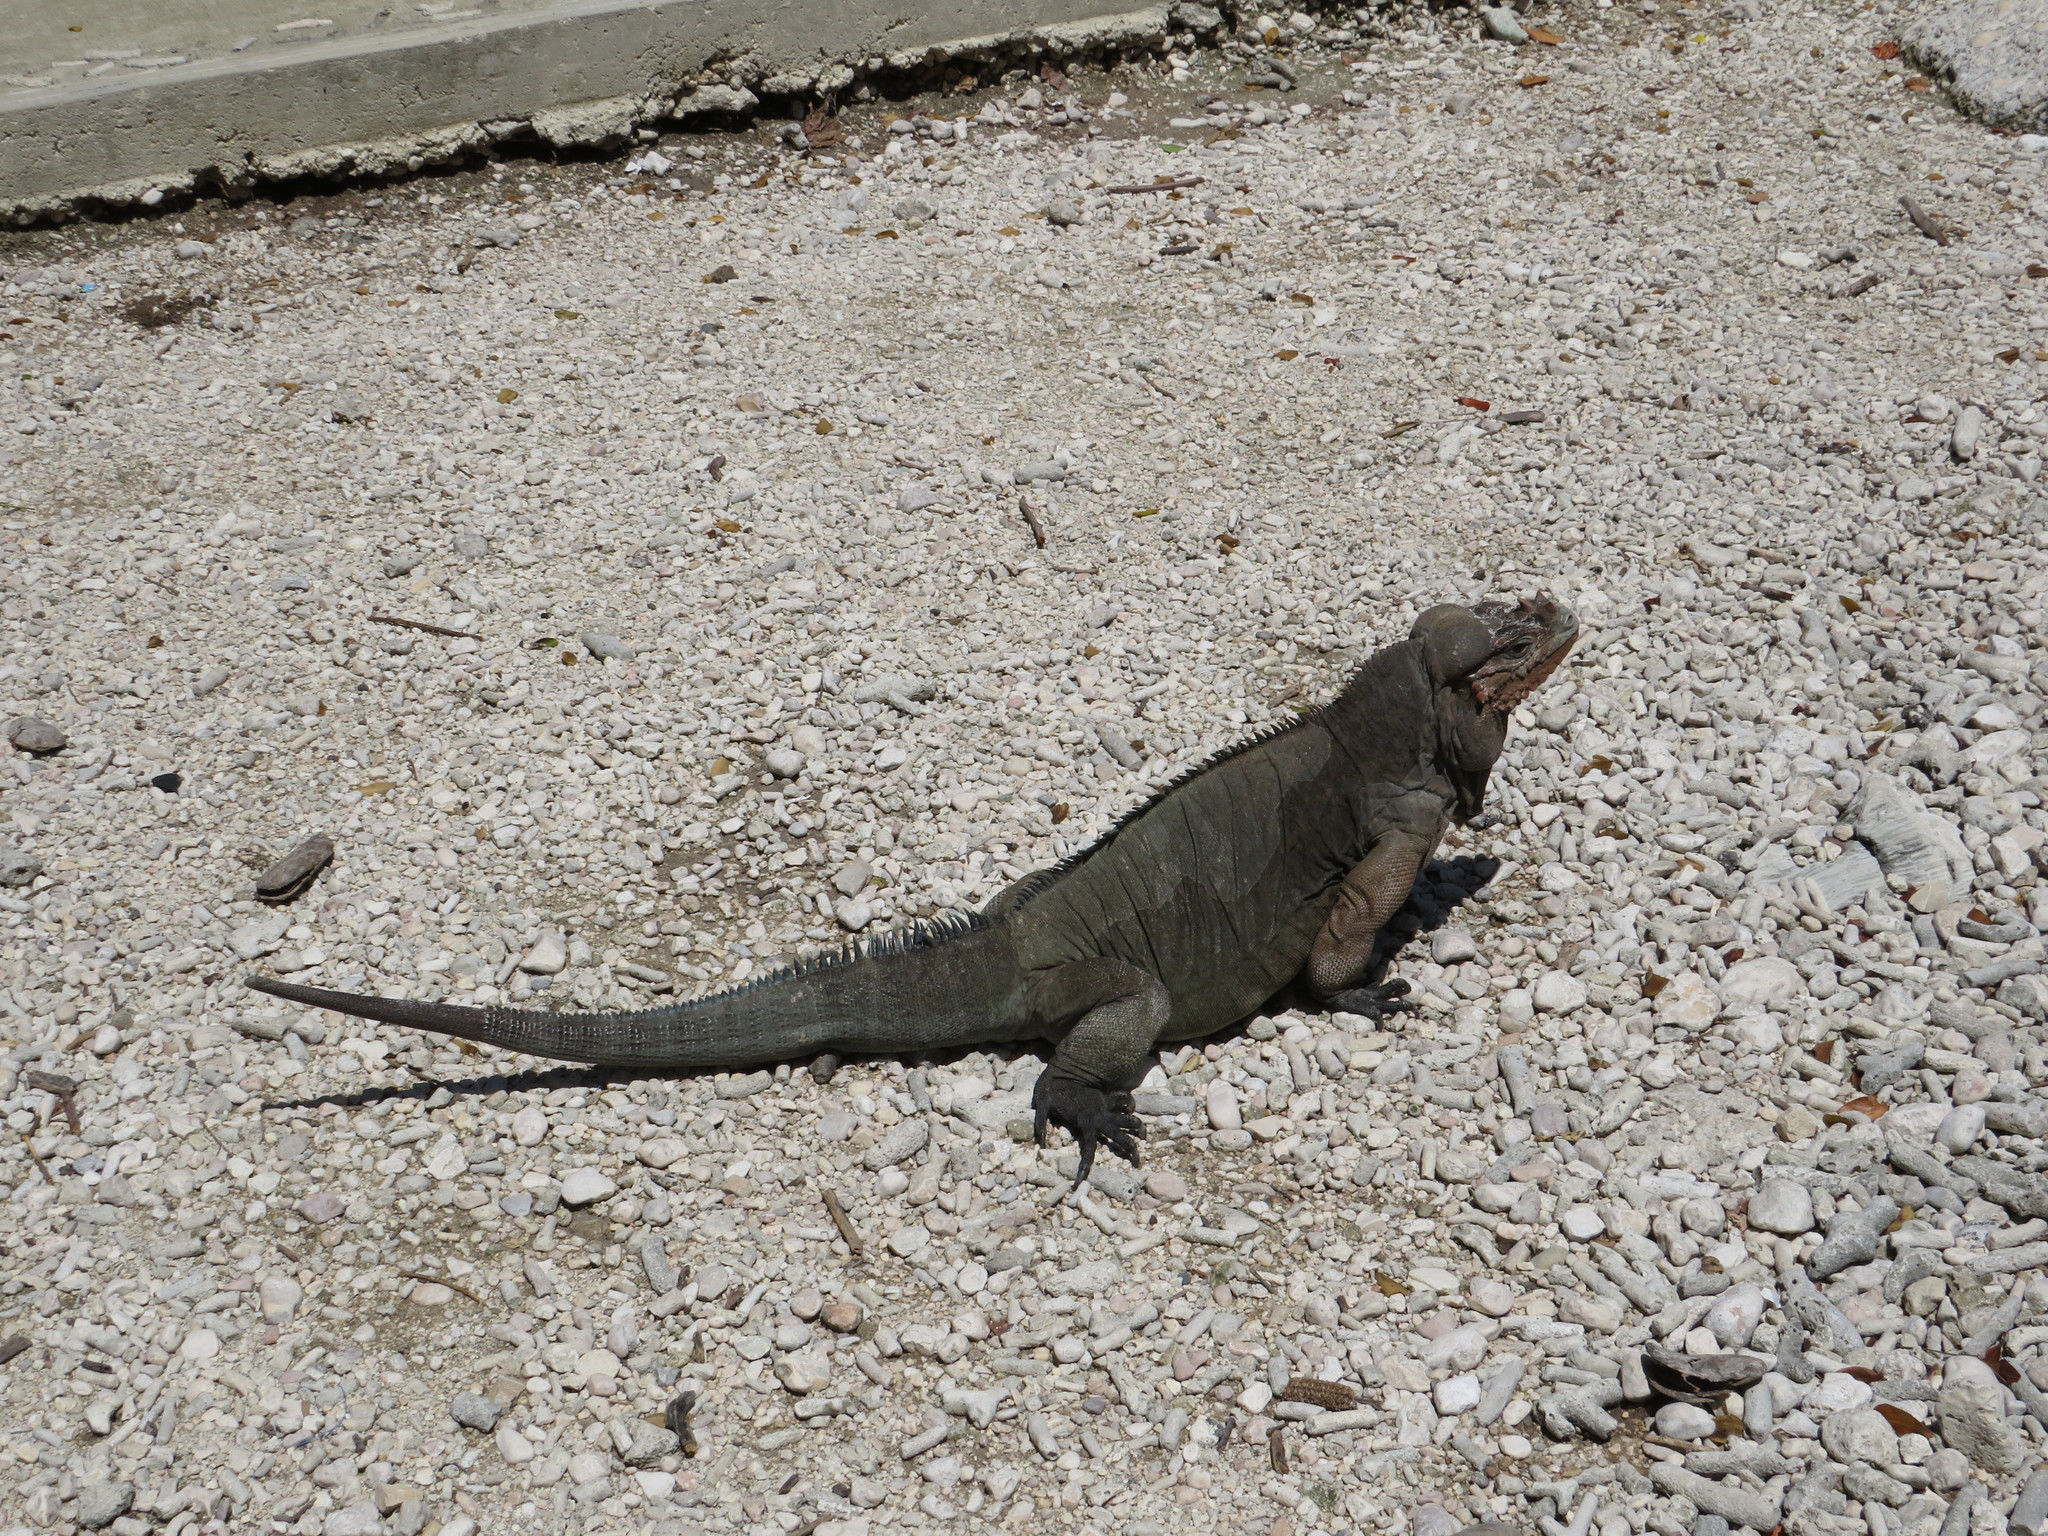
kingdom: Animalia
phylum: Chordata
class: Squamata
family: Iguanidae
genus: Cyclura
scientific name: Cyclura cornuta
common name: Hispaniolan rhinoceros iguana
